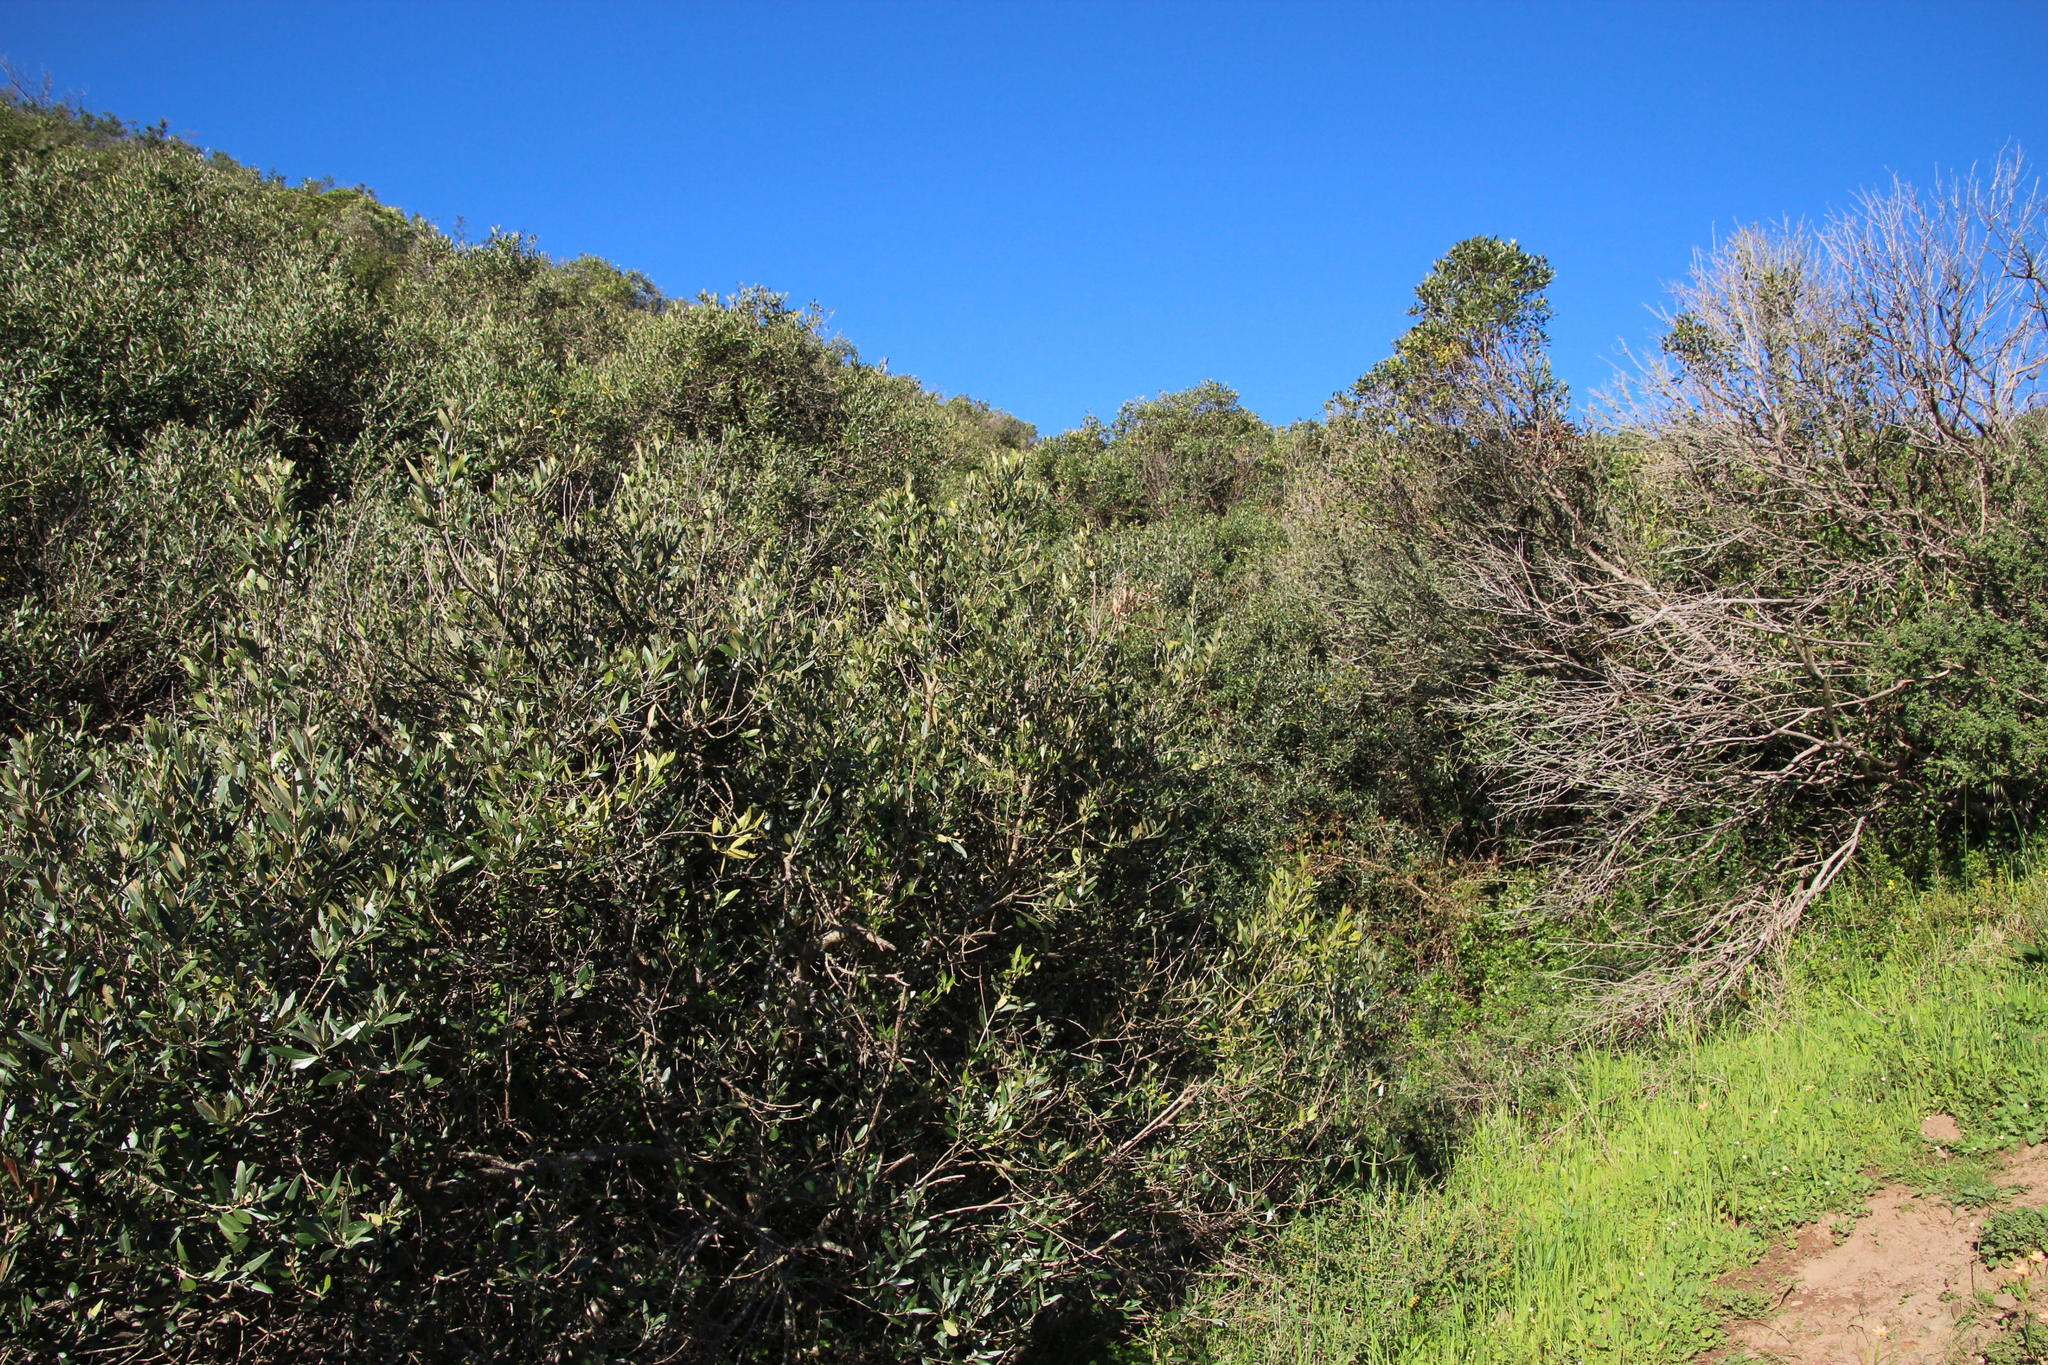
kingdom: Plantae
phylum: Tracheophyta
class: Magnoliopsida
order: Lamiales
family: Oleaceae
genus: Olea
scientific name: Olea europaea
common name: Olive
